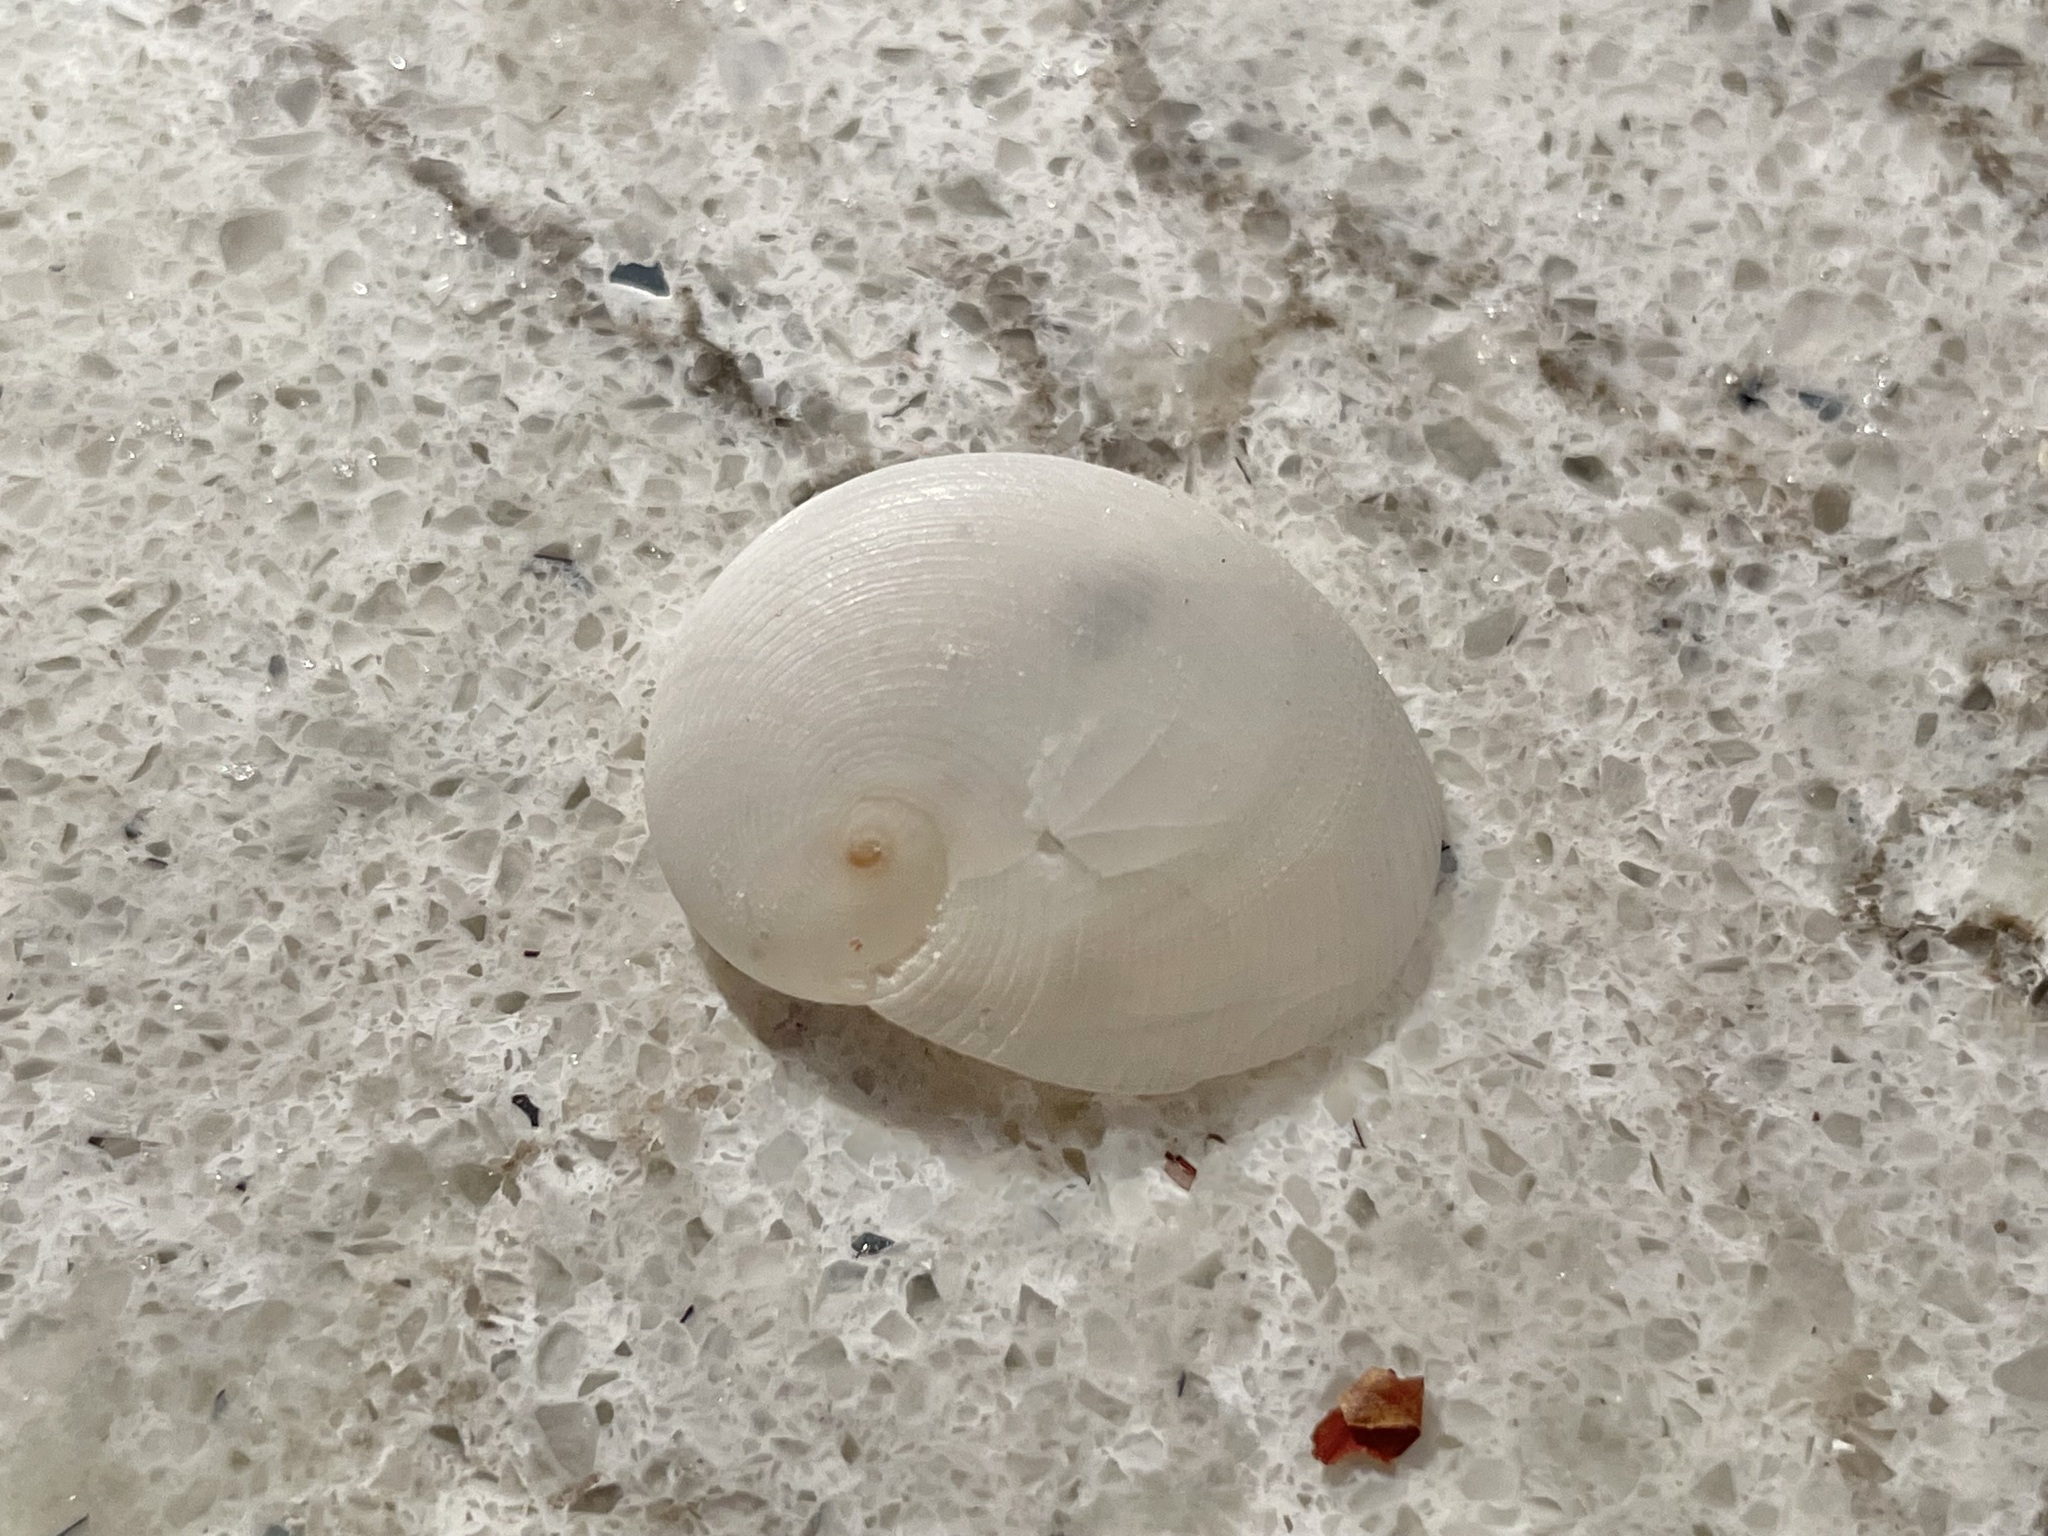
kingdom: Animalia
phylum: Mollusca
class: Gastropoda
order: Littorinimorpha
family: Naticidae
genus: Sinum
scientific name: Sinum perspectivum
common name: White baby ear
